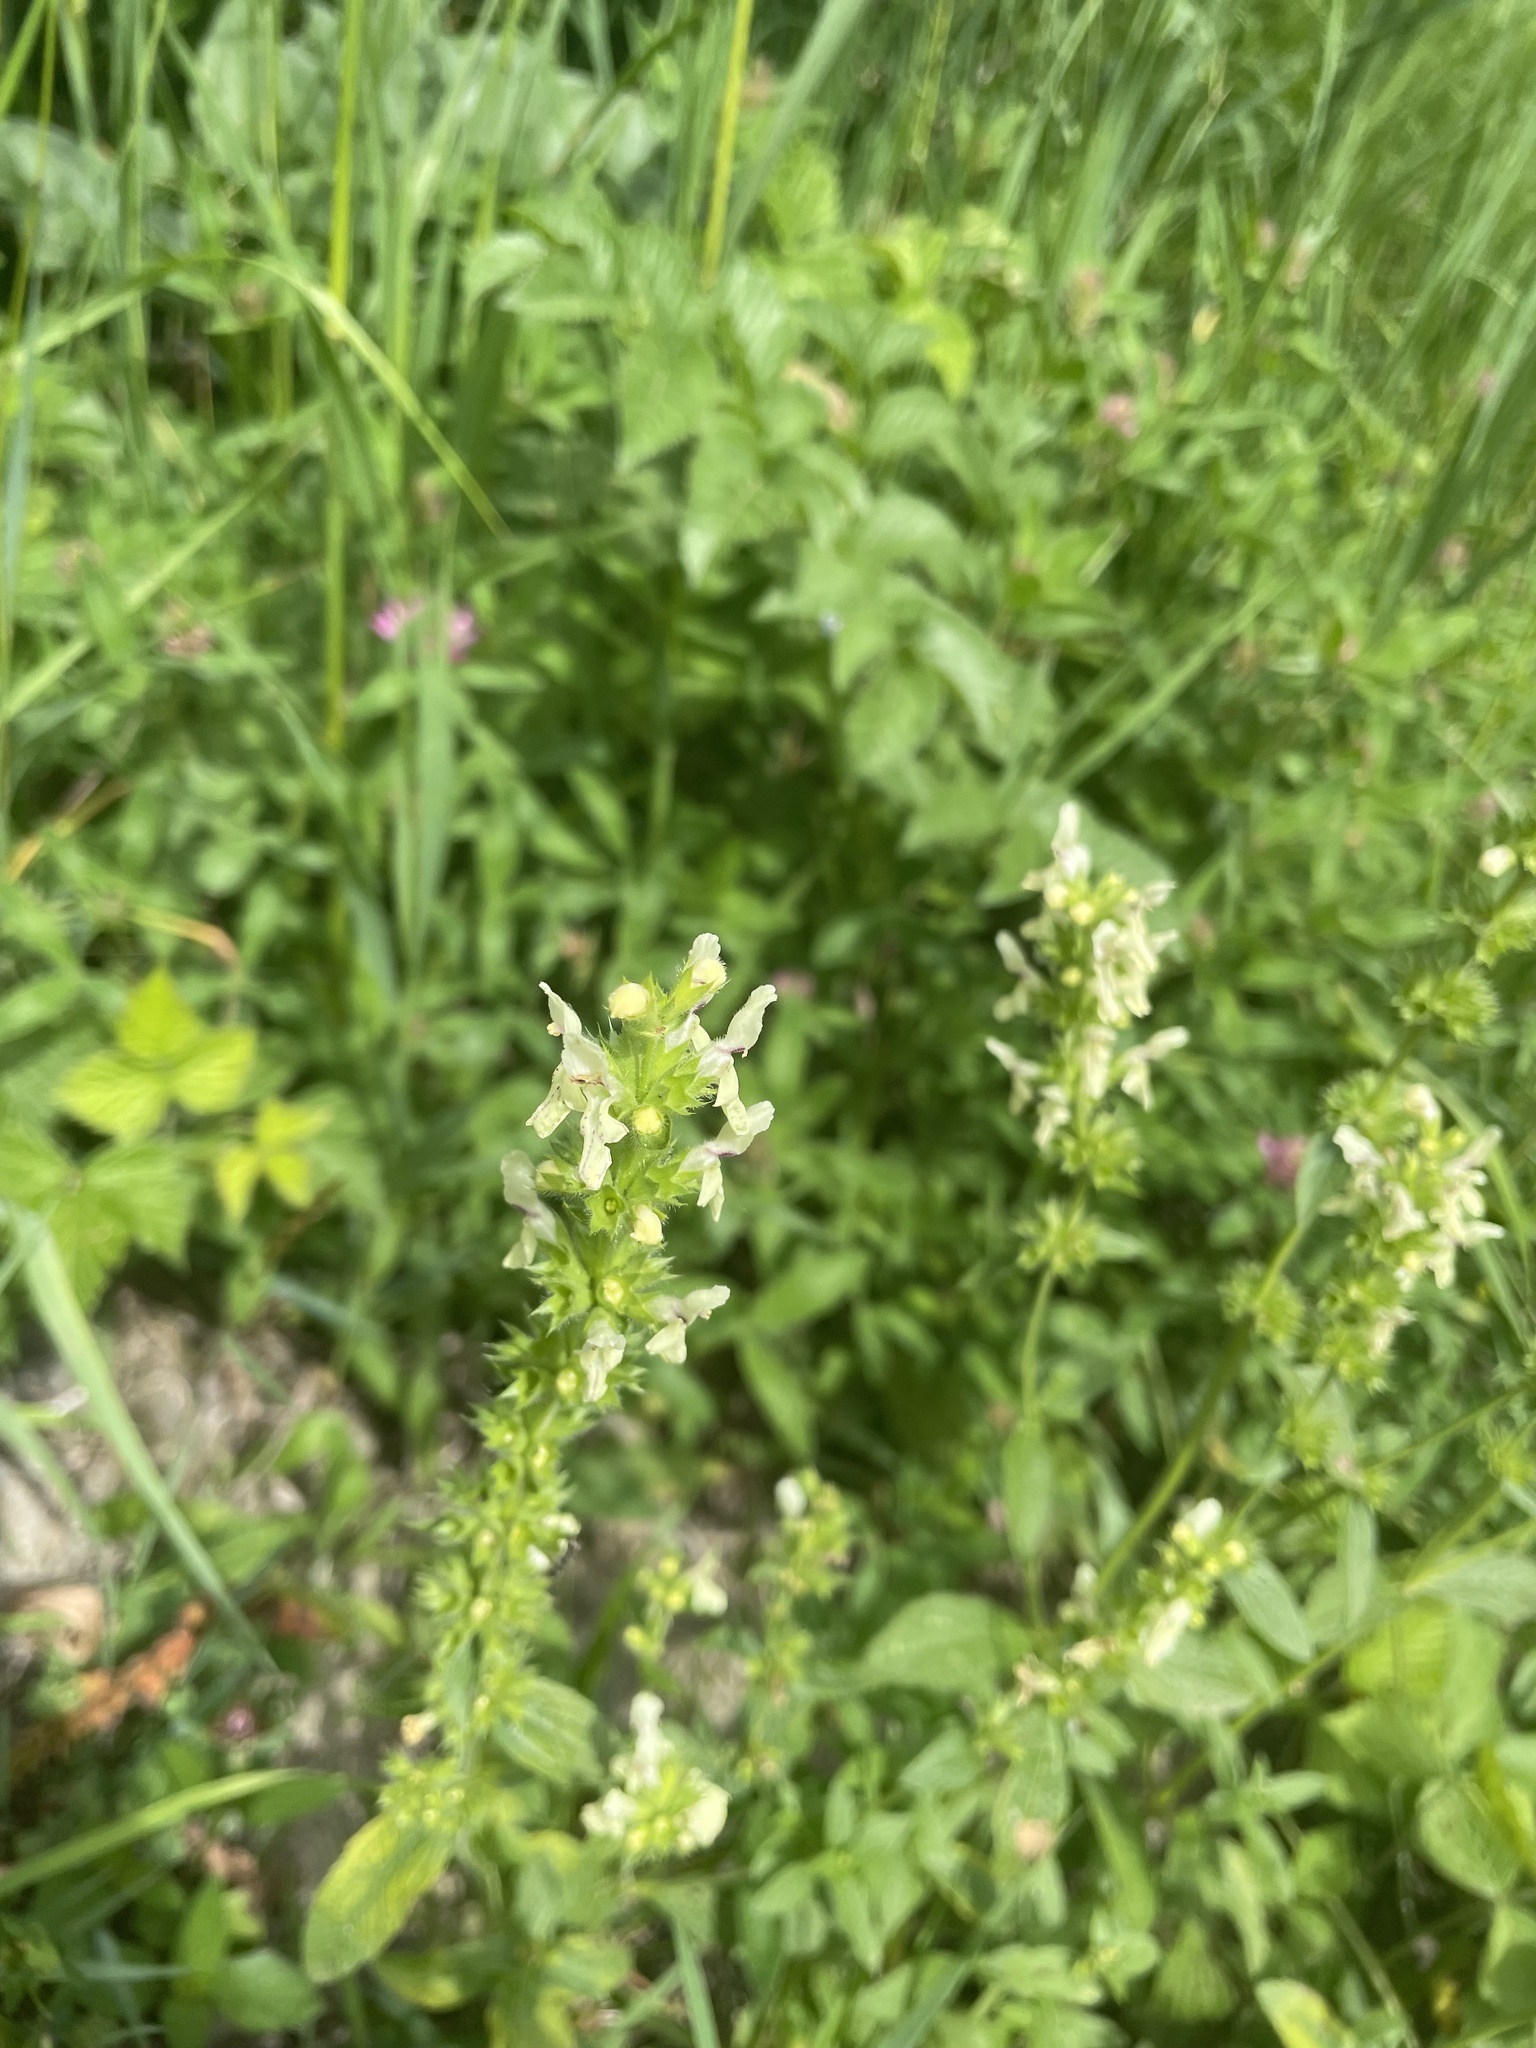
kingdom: Plantae
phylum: Tracheophyta
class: Magnoliopsida
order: Lamiales
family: Lamiaceae
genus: Stachys
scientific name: Stachys recta
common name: Perennial yellow-woundwort
